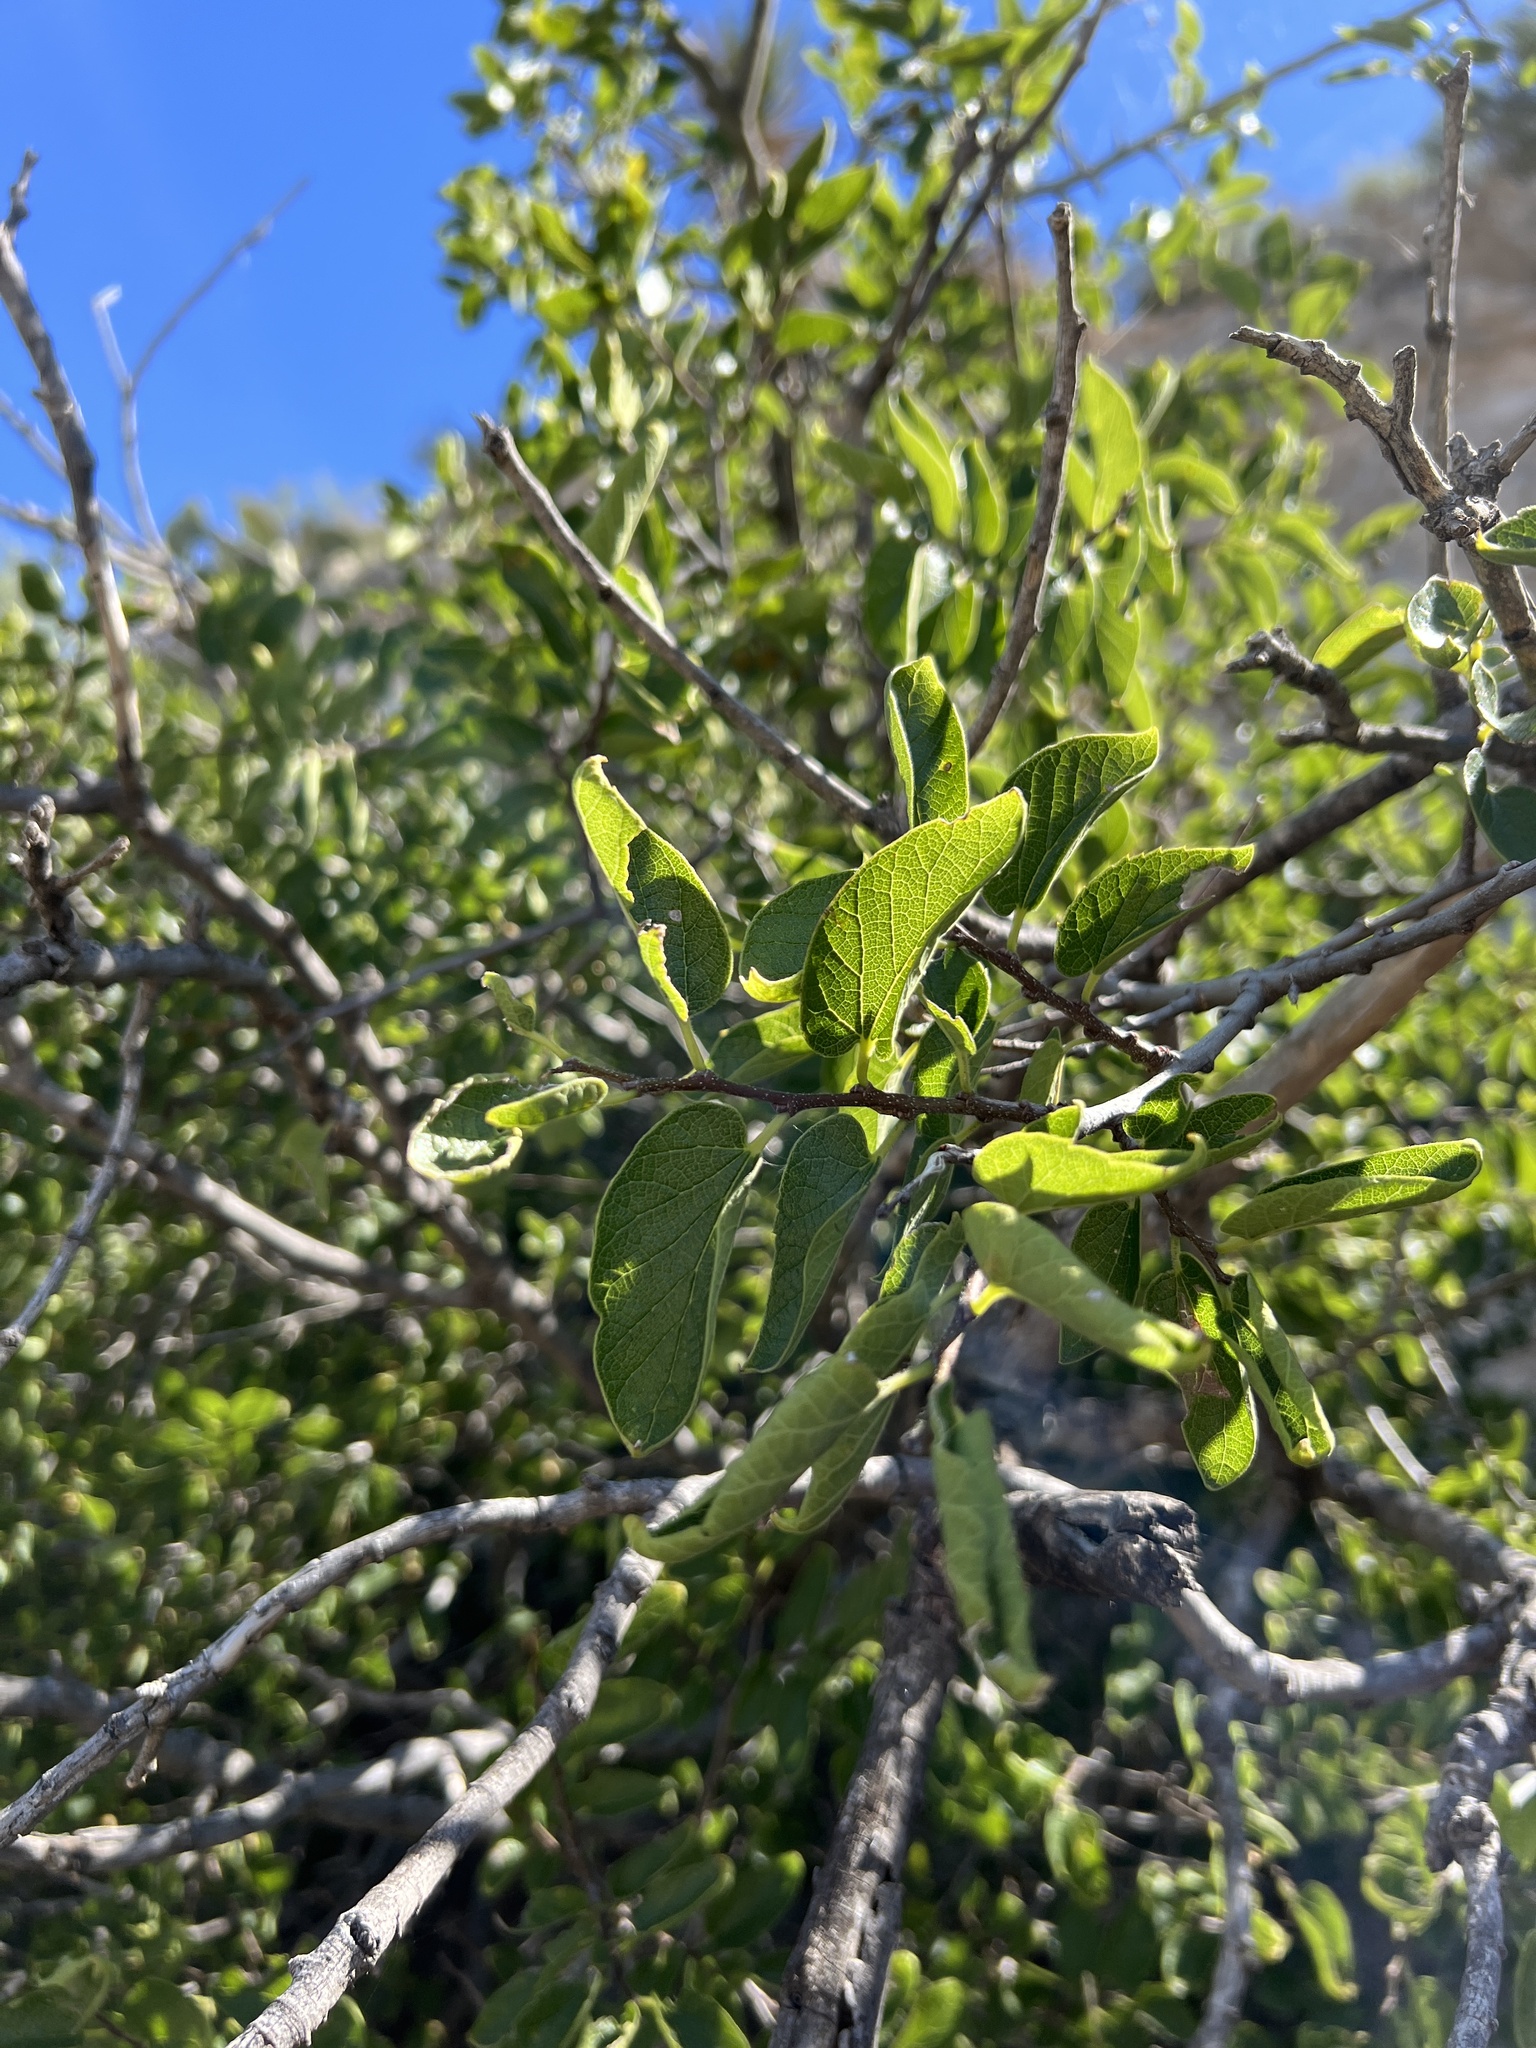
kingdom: Plantae
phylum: Tracheophyta
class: Magnoliopsida
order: Rosales
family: Cannabaceae
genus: Celtis
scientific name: Celtis reticulata
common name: Netleaf hackberry
